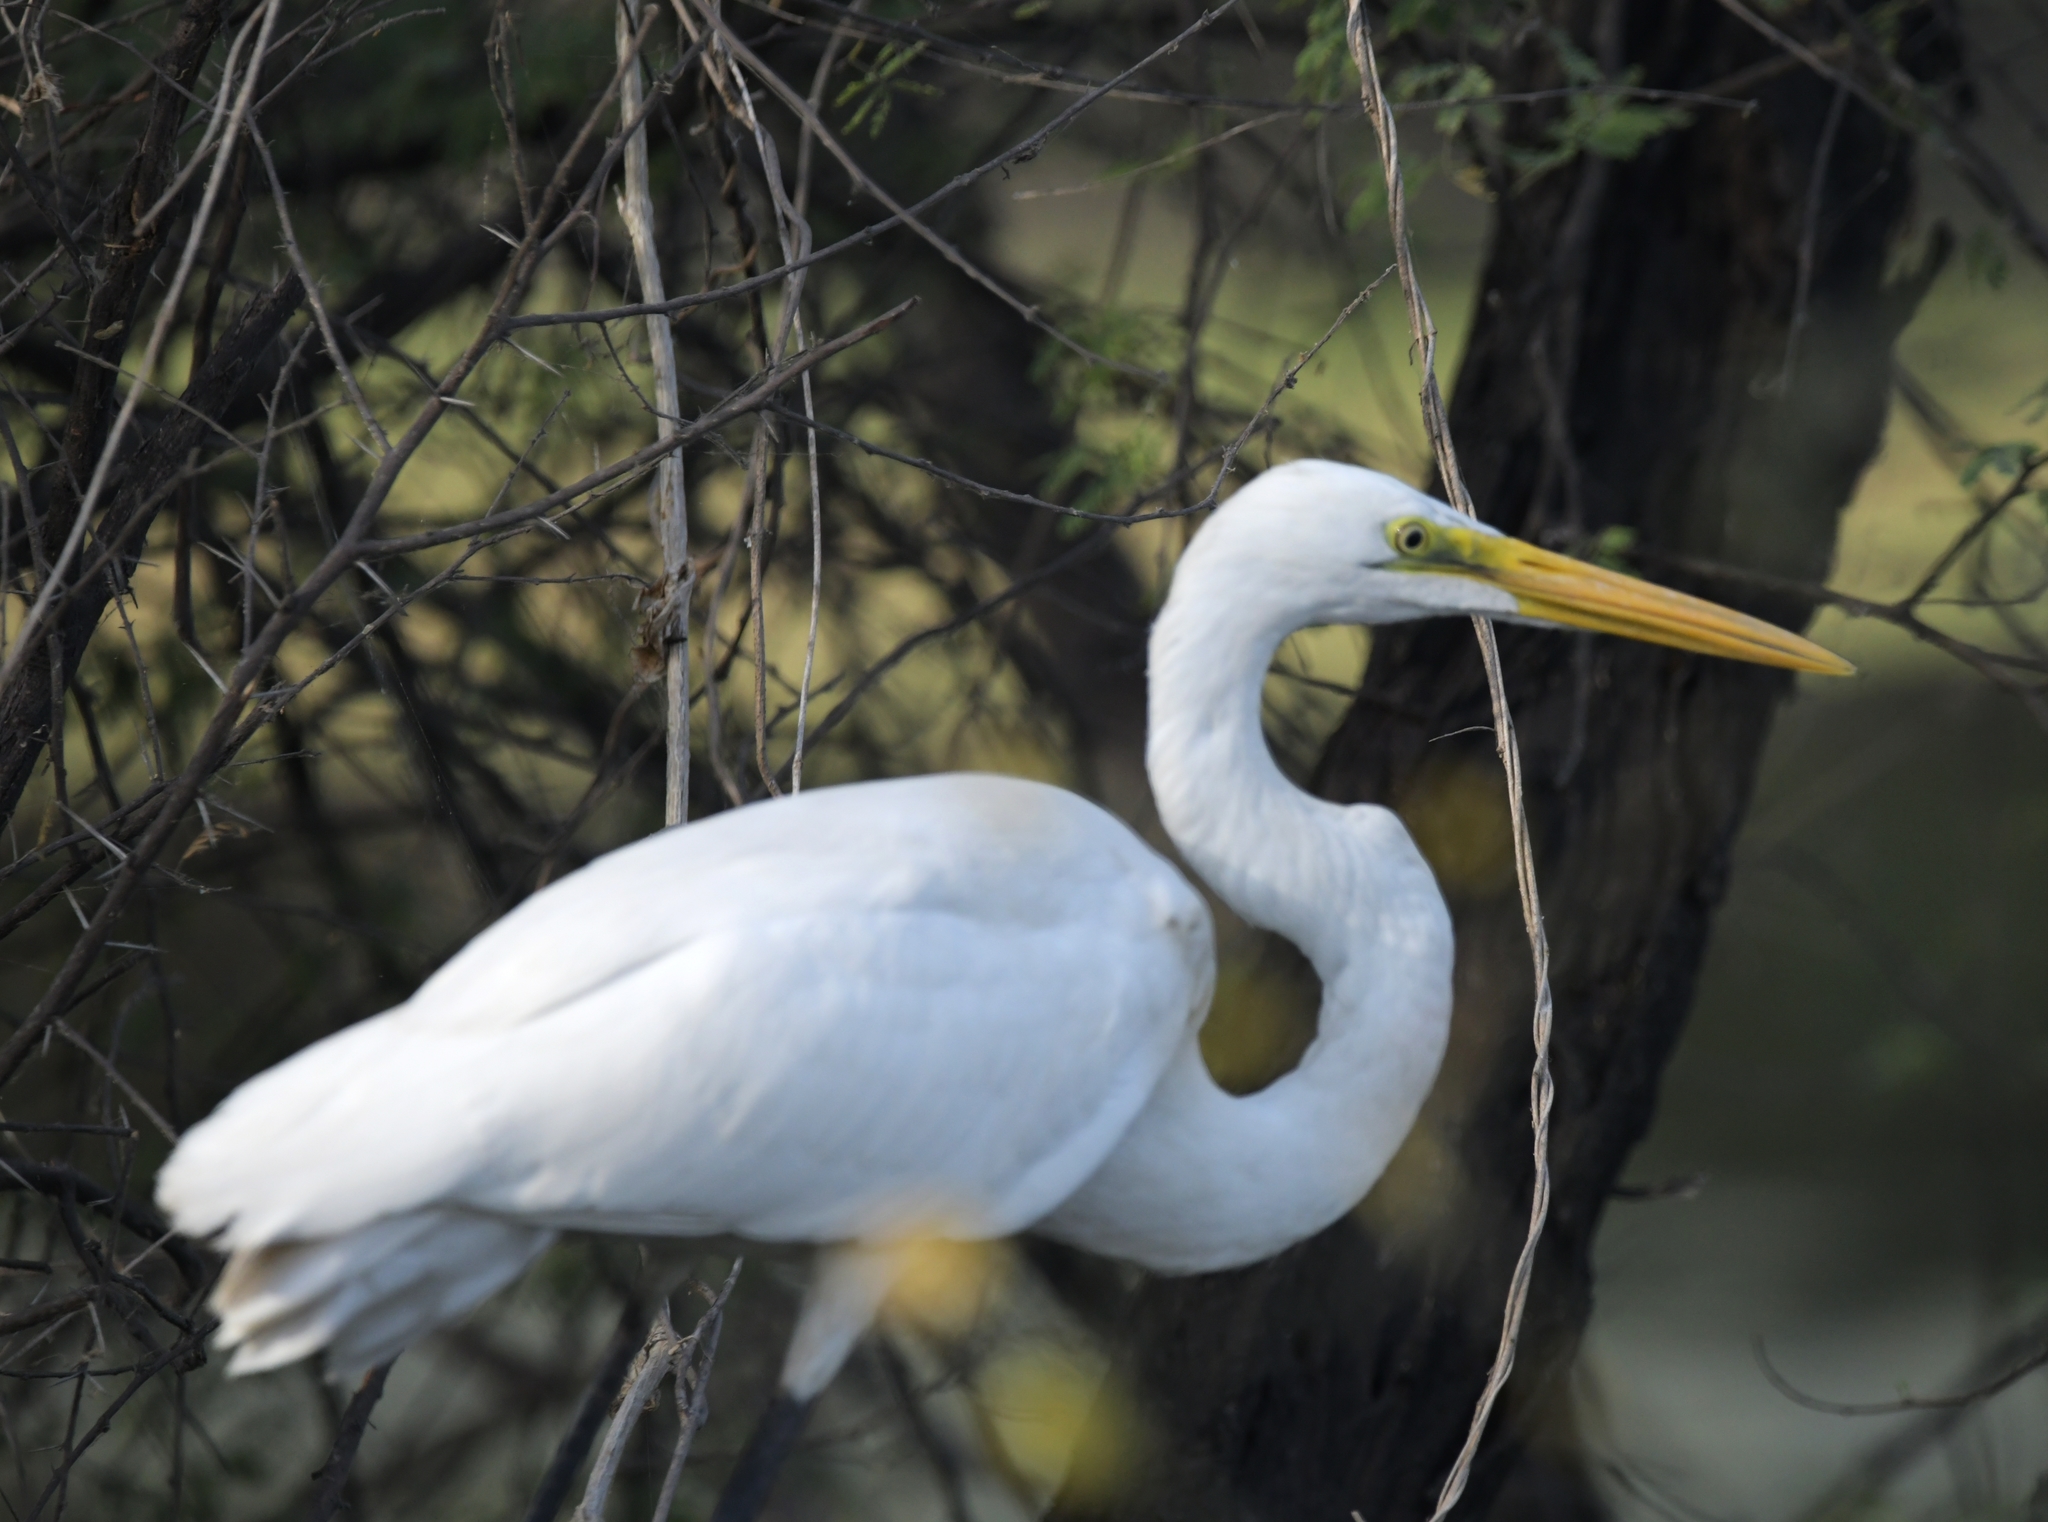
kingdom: Animalia
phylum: Chordata
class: Aves
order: Pelecaniformes
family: Ardeidae
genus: Ardea
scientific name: Ardea alba
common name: Great egret
